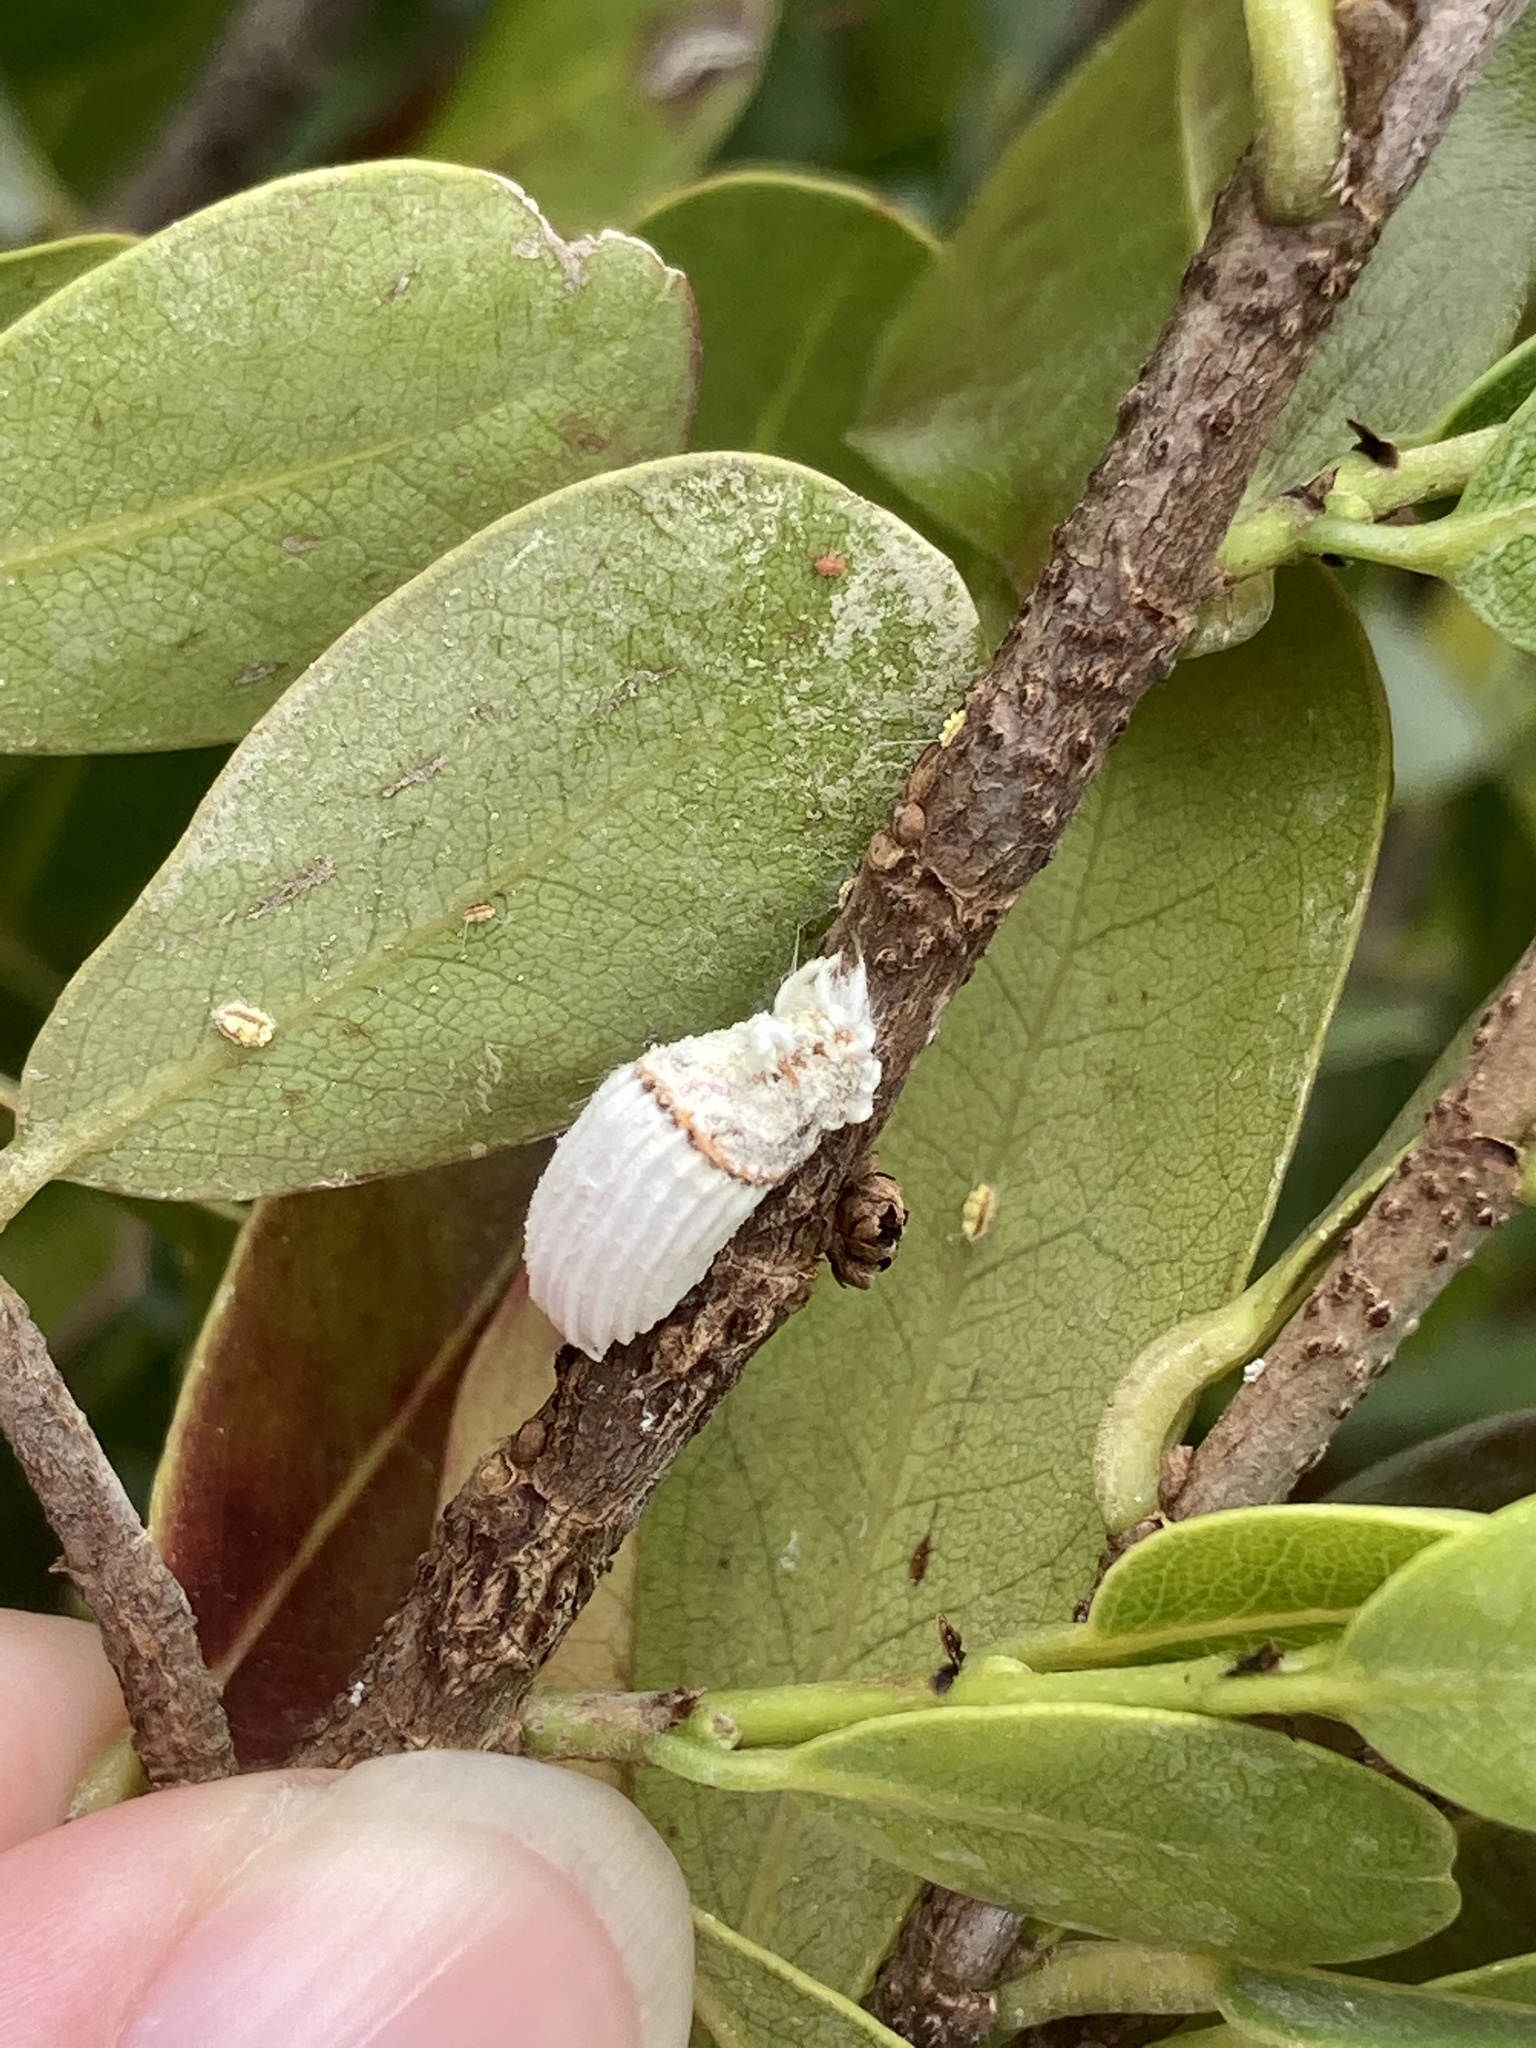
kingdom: Animalia
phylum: Arthropoda
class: Insecta
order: Hemiptera
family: Margarodidae
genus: Icerya
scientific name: Icerya purchasi
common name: Cottony cushion scale
